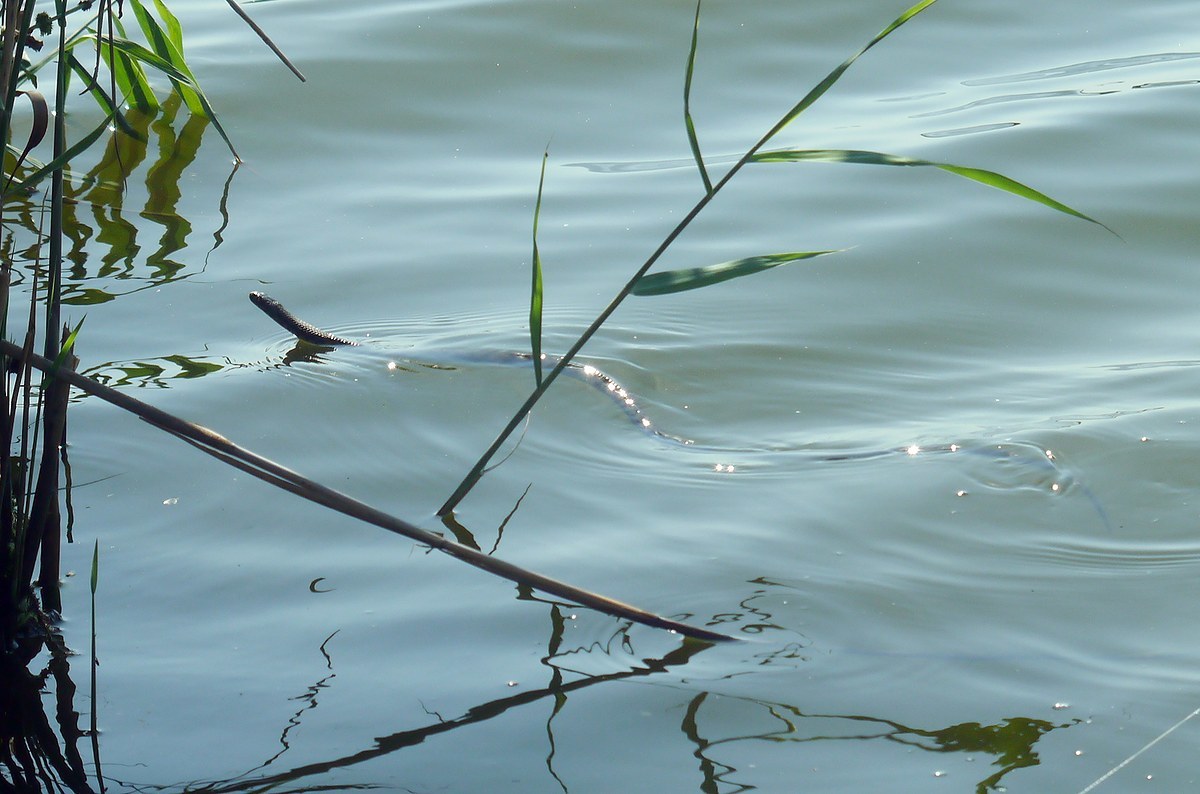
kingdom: Animalia
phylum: Chordata
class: Squamata
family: Colubridae
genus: Natrix
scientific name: Natrix tessellata
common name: Dice snake
